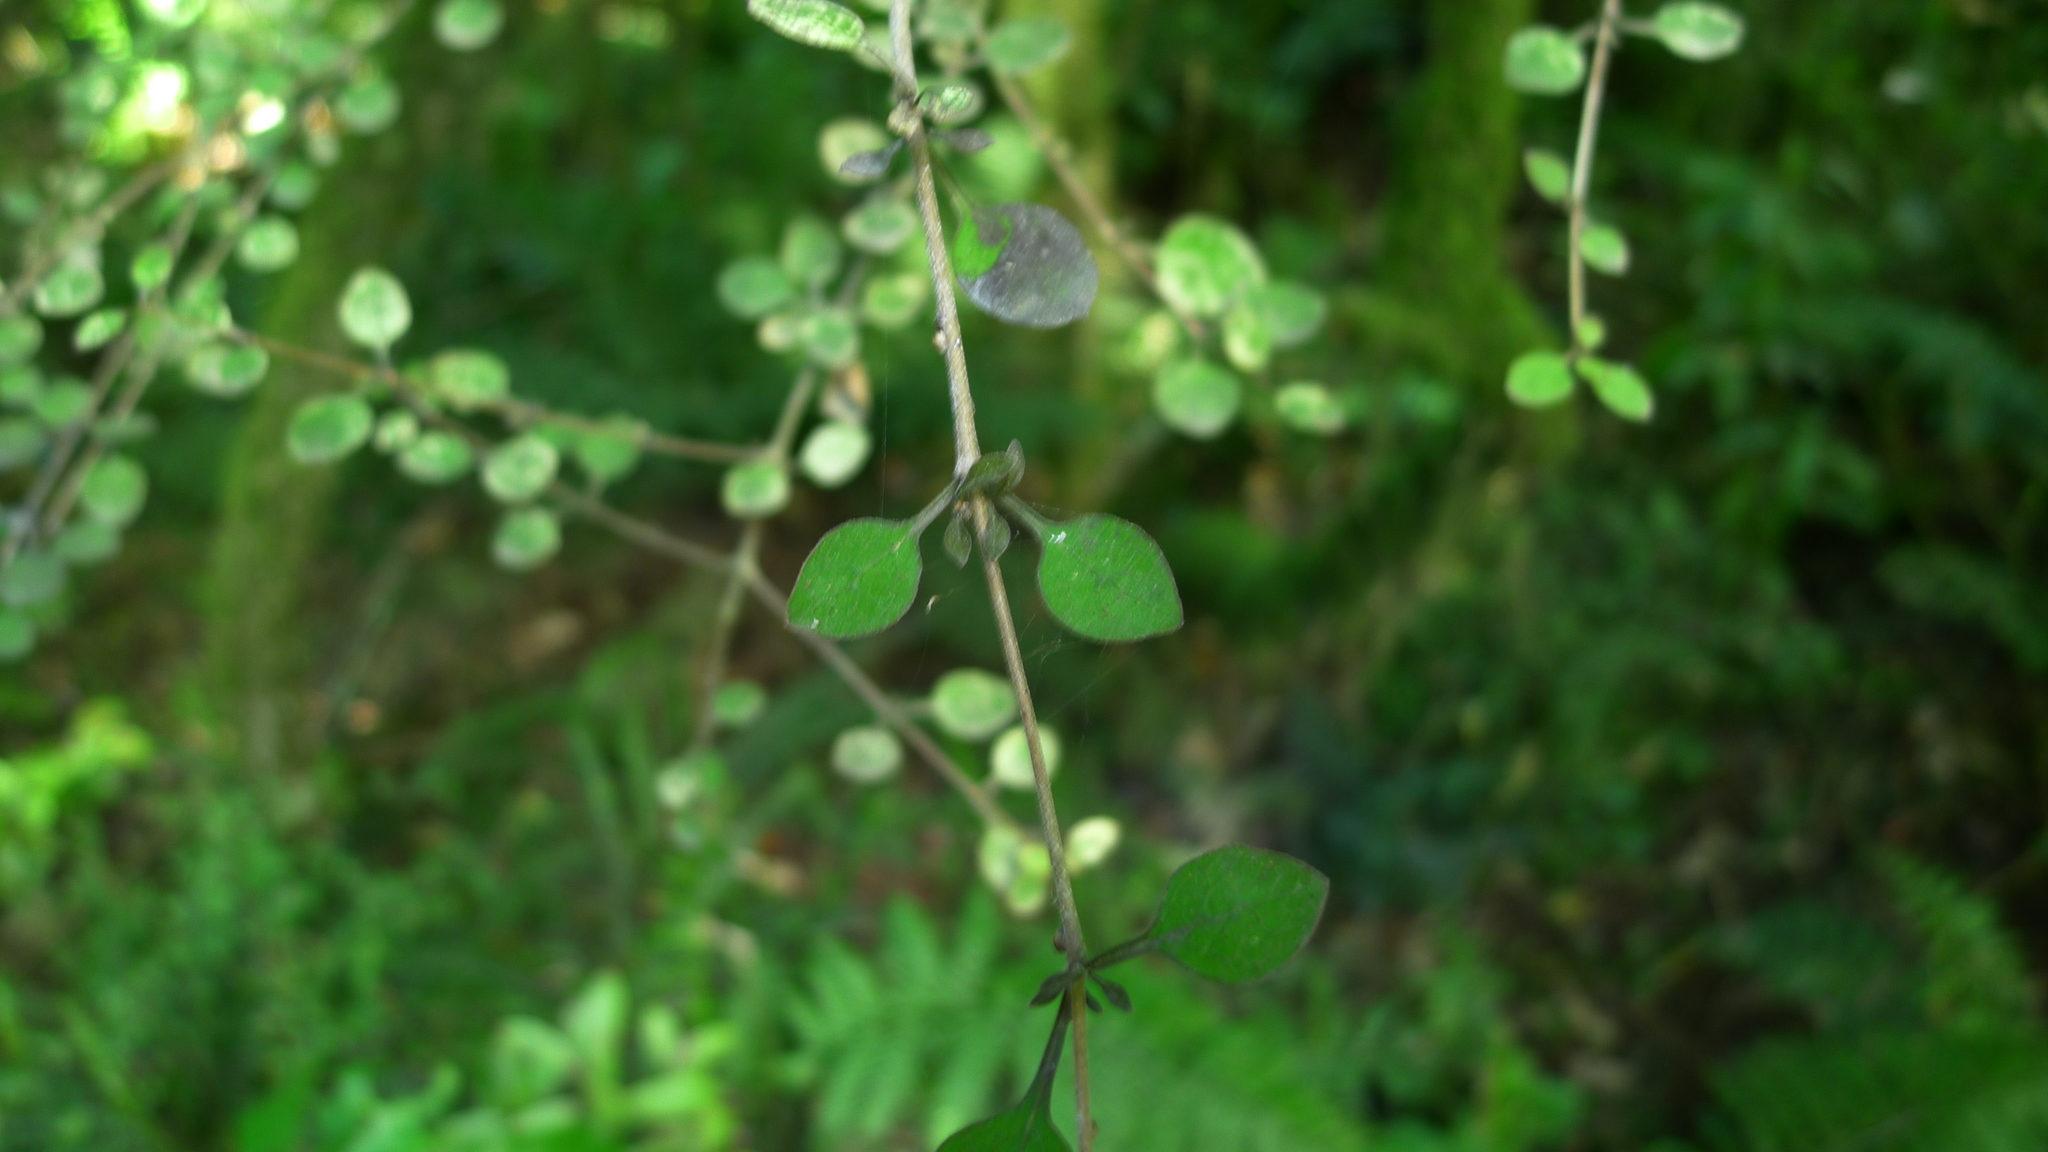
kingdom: Plantae
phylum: Tracheophyta
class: Magnoliopsida
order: Gentianales
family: Rubiaceae
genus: Coprosma
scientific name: Coprosma rhamnoides
